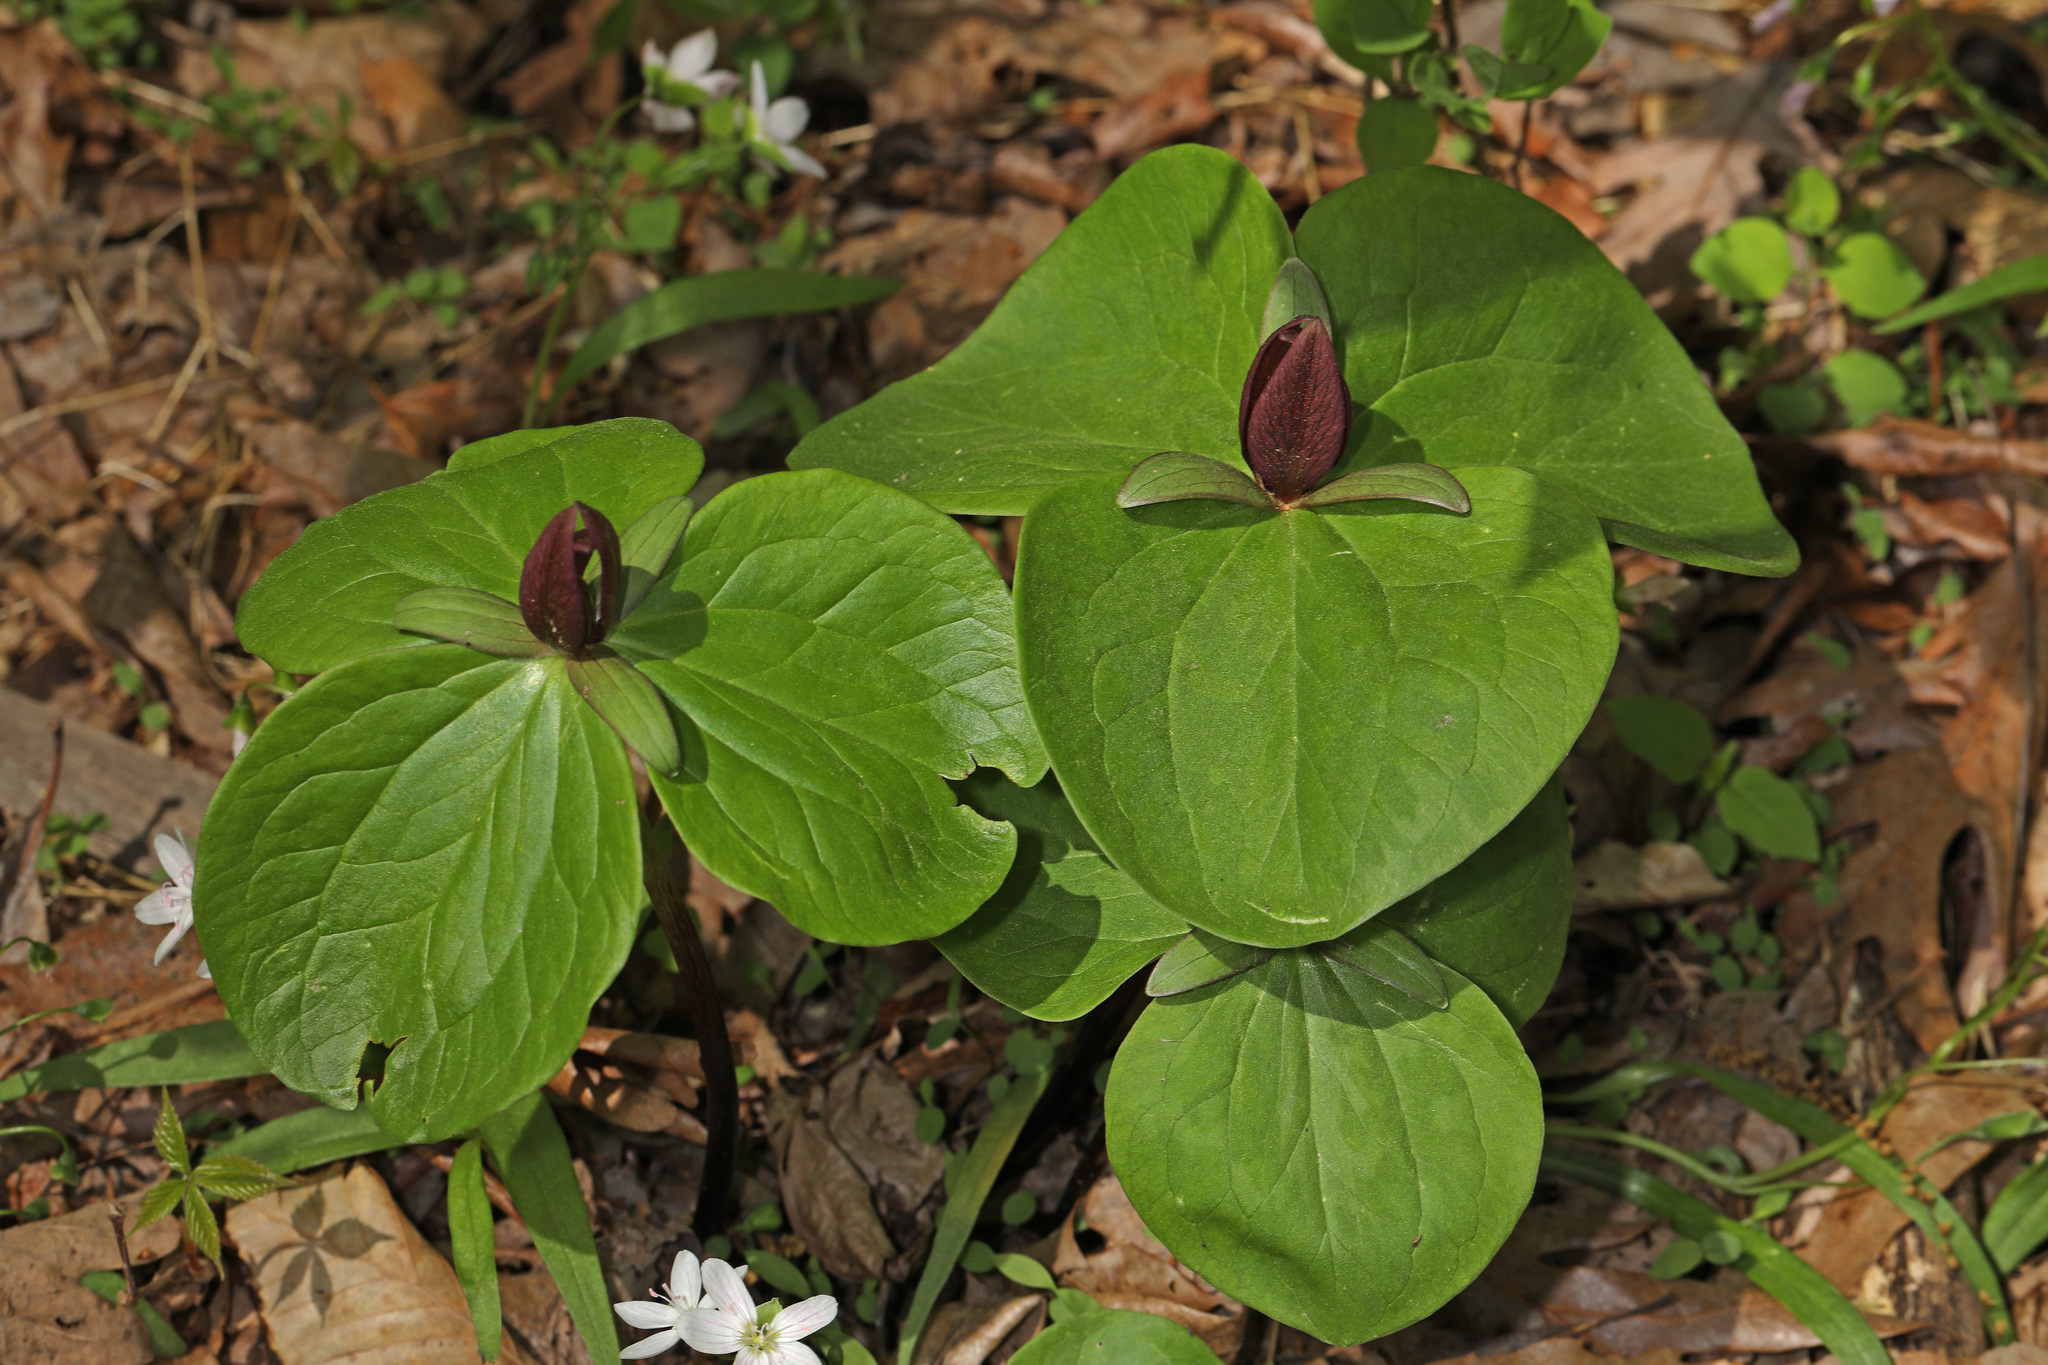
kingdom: Plantae
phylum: Tracheophyta
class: Liliopsida
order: Liliales
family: Melanthiaceae
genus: Trillium
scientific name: Trillium sessile
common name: Sessile trillium
